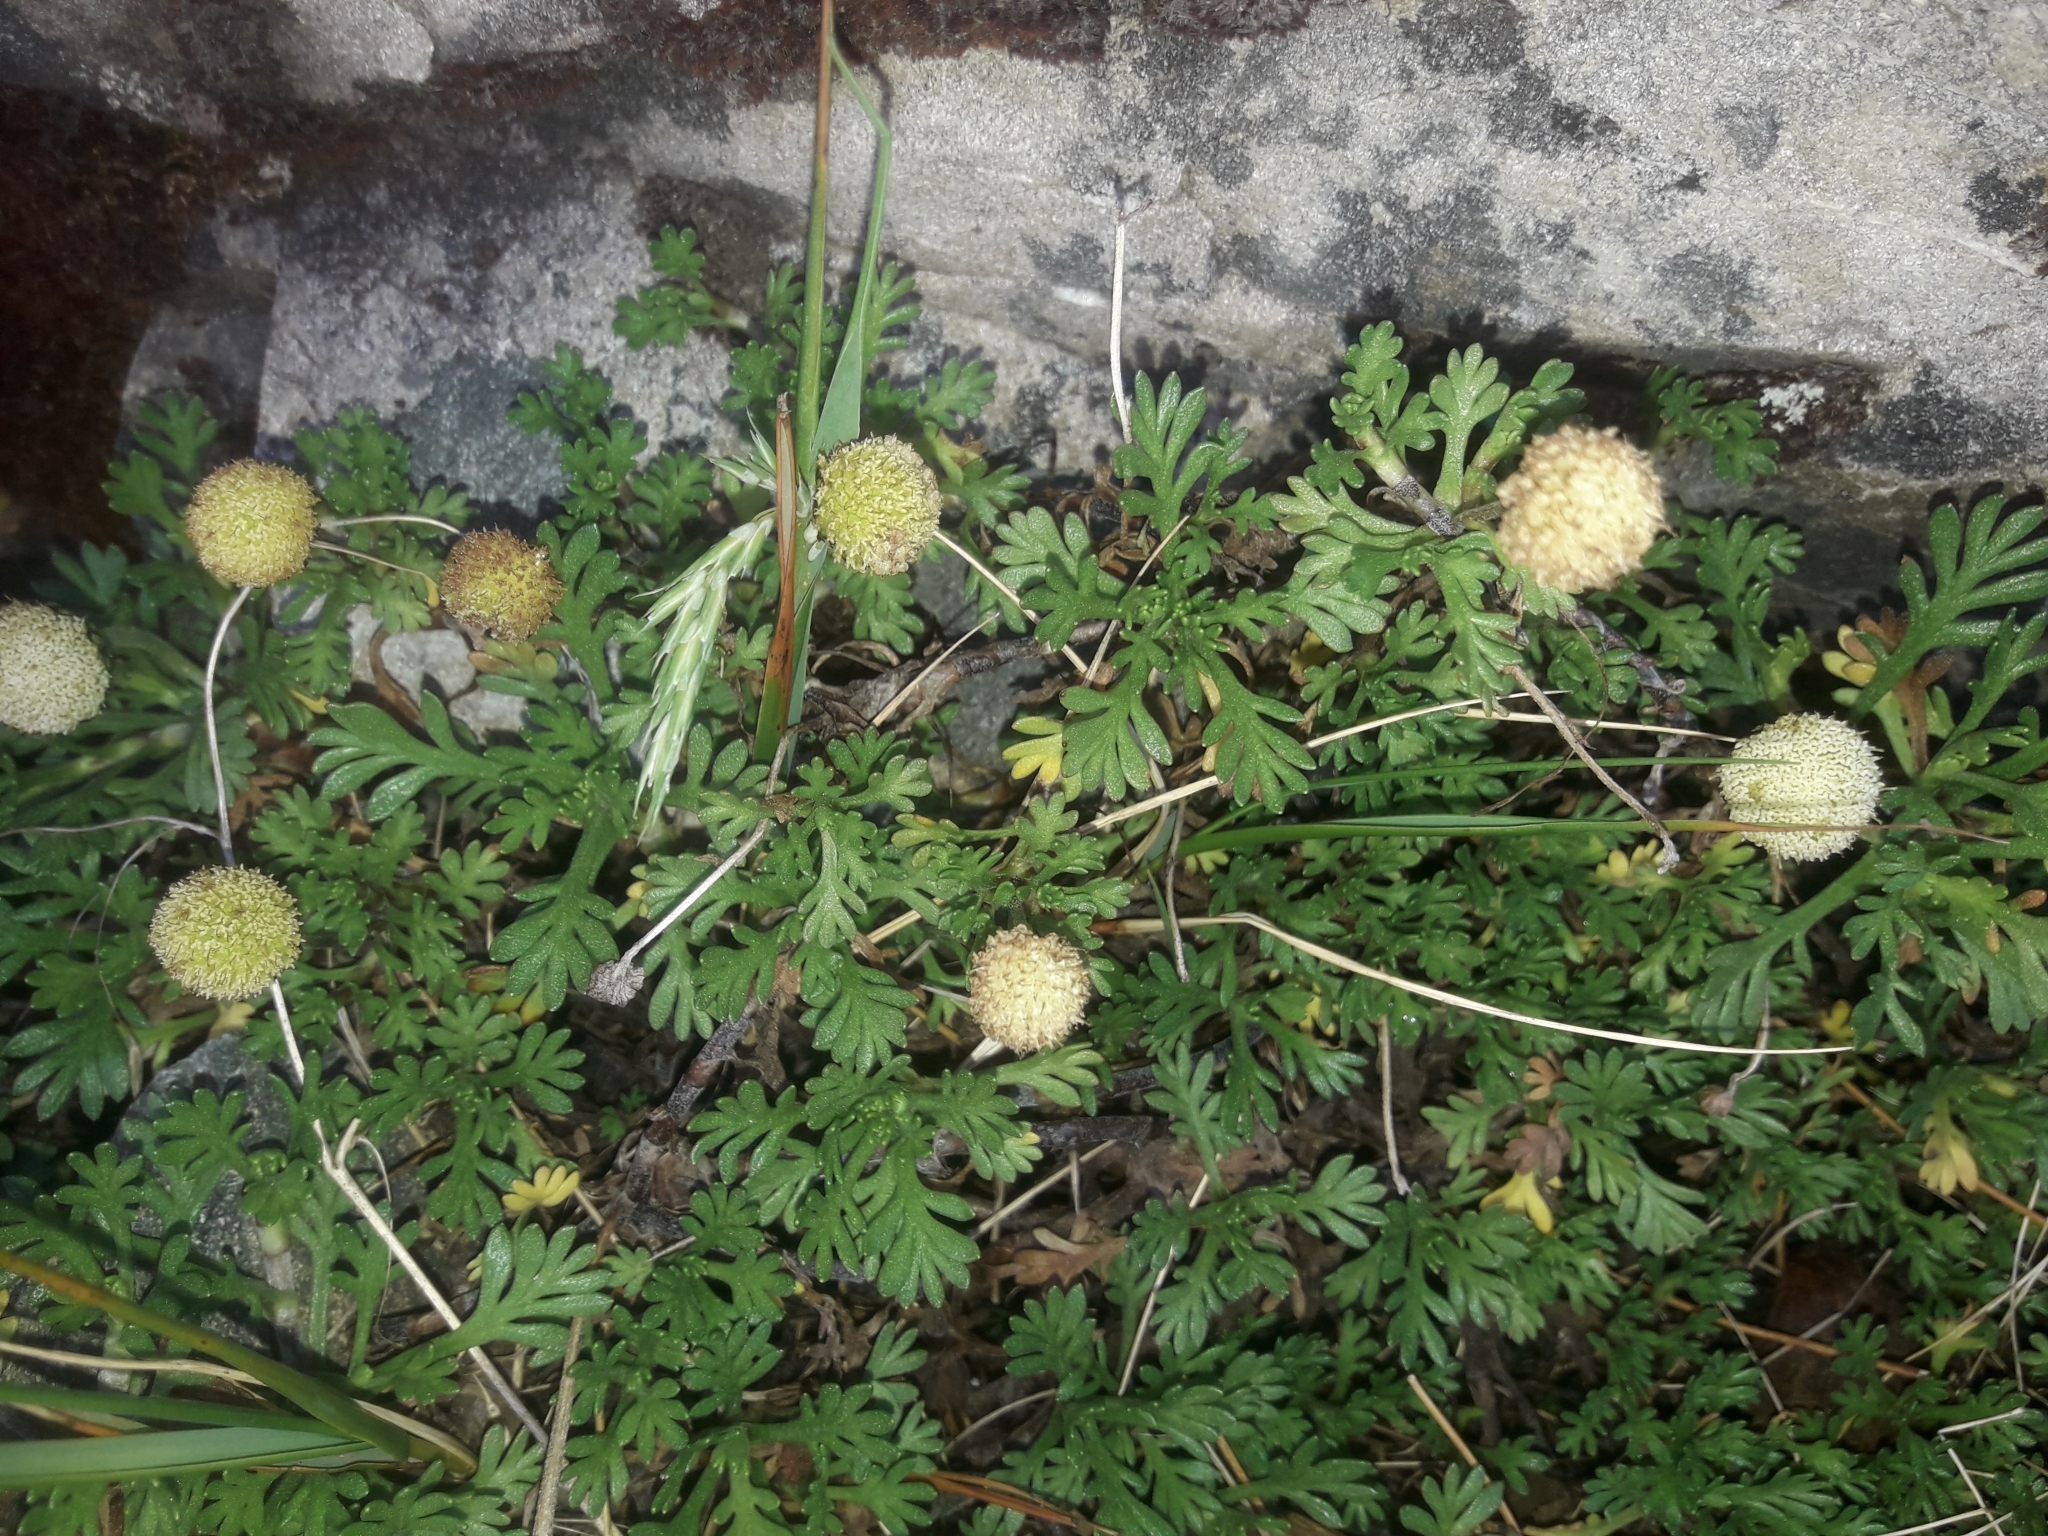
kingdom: Plantae
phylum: Tracheophyta
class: Magnoliopsida
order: Asterales
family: Asteraceae
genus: Leptinella
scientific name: Leptinella pyrethrifolia
